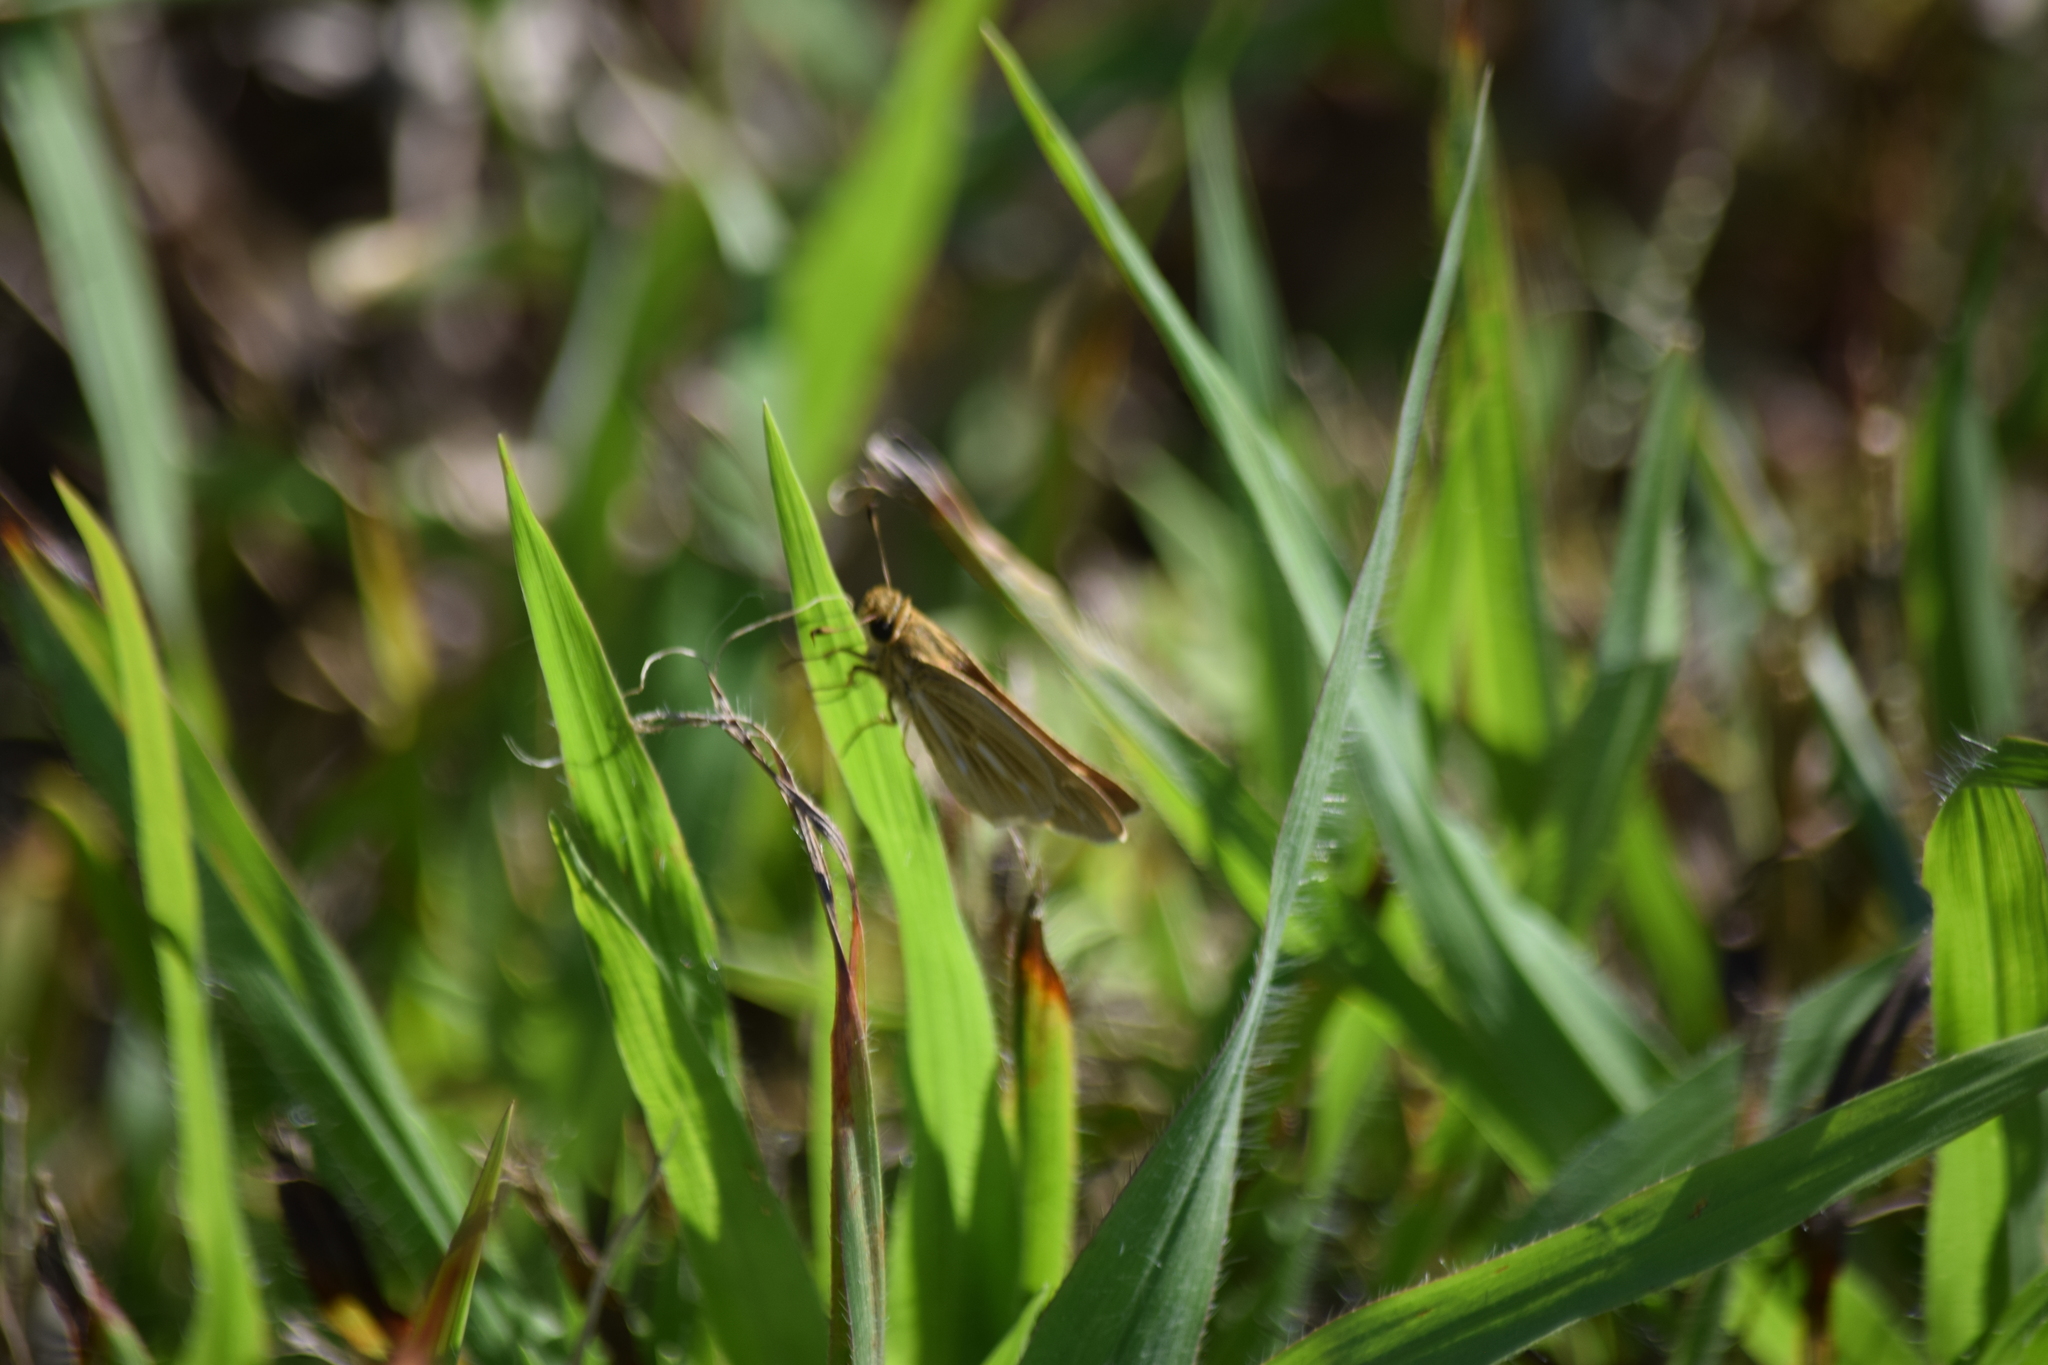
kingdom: Animalia
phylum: Arthropoda
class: Insecta
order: Lepidoptera
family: Hesperiidae
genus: Panoquina
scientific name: Panoquina panoquin
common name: Salt marsh skipper
